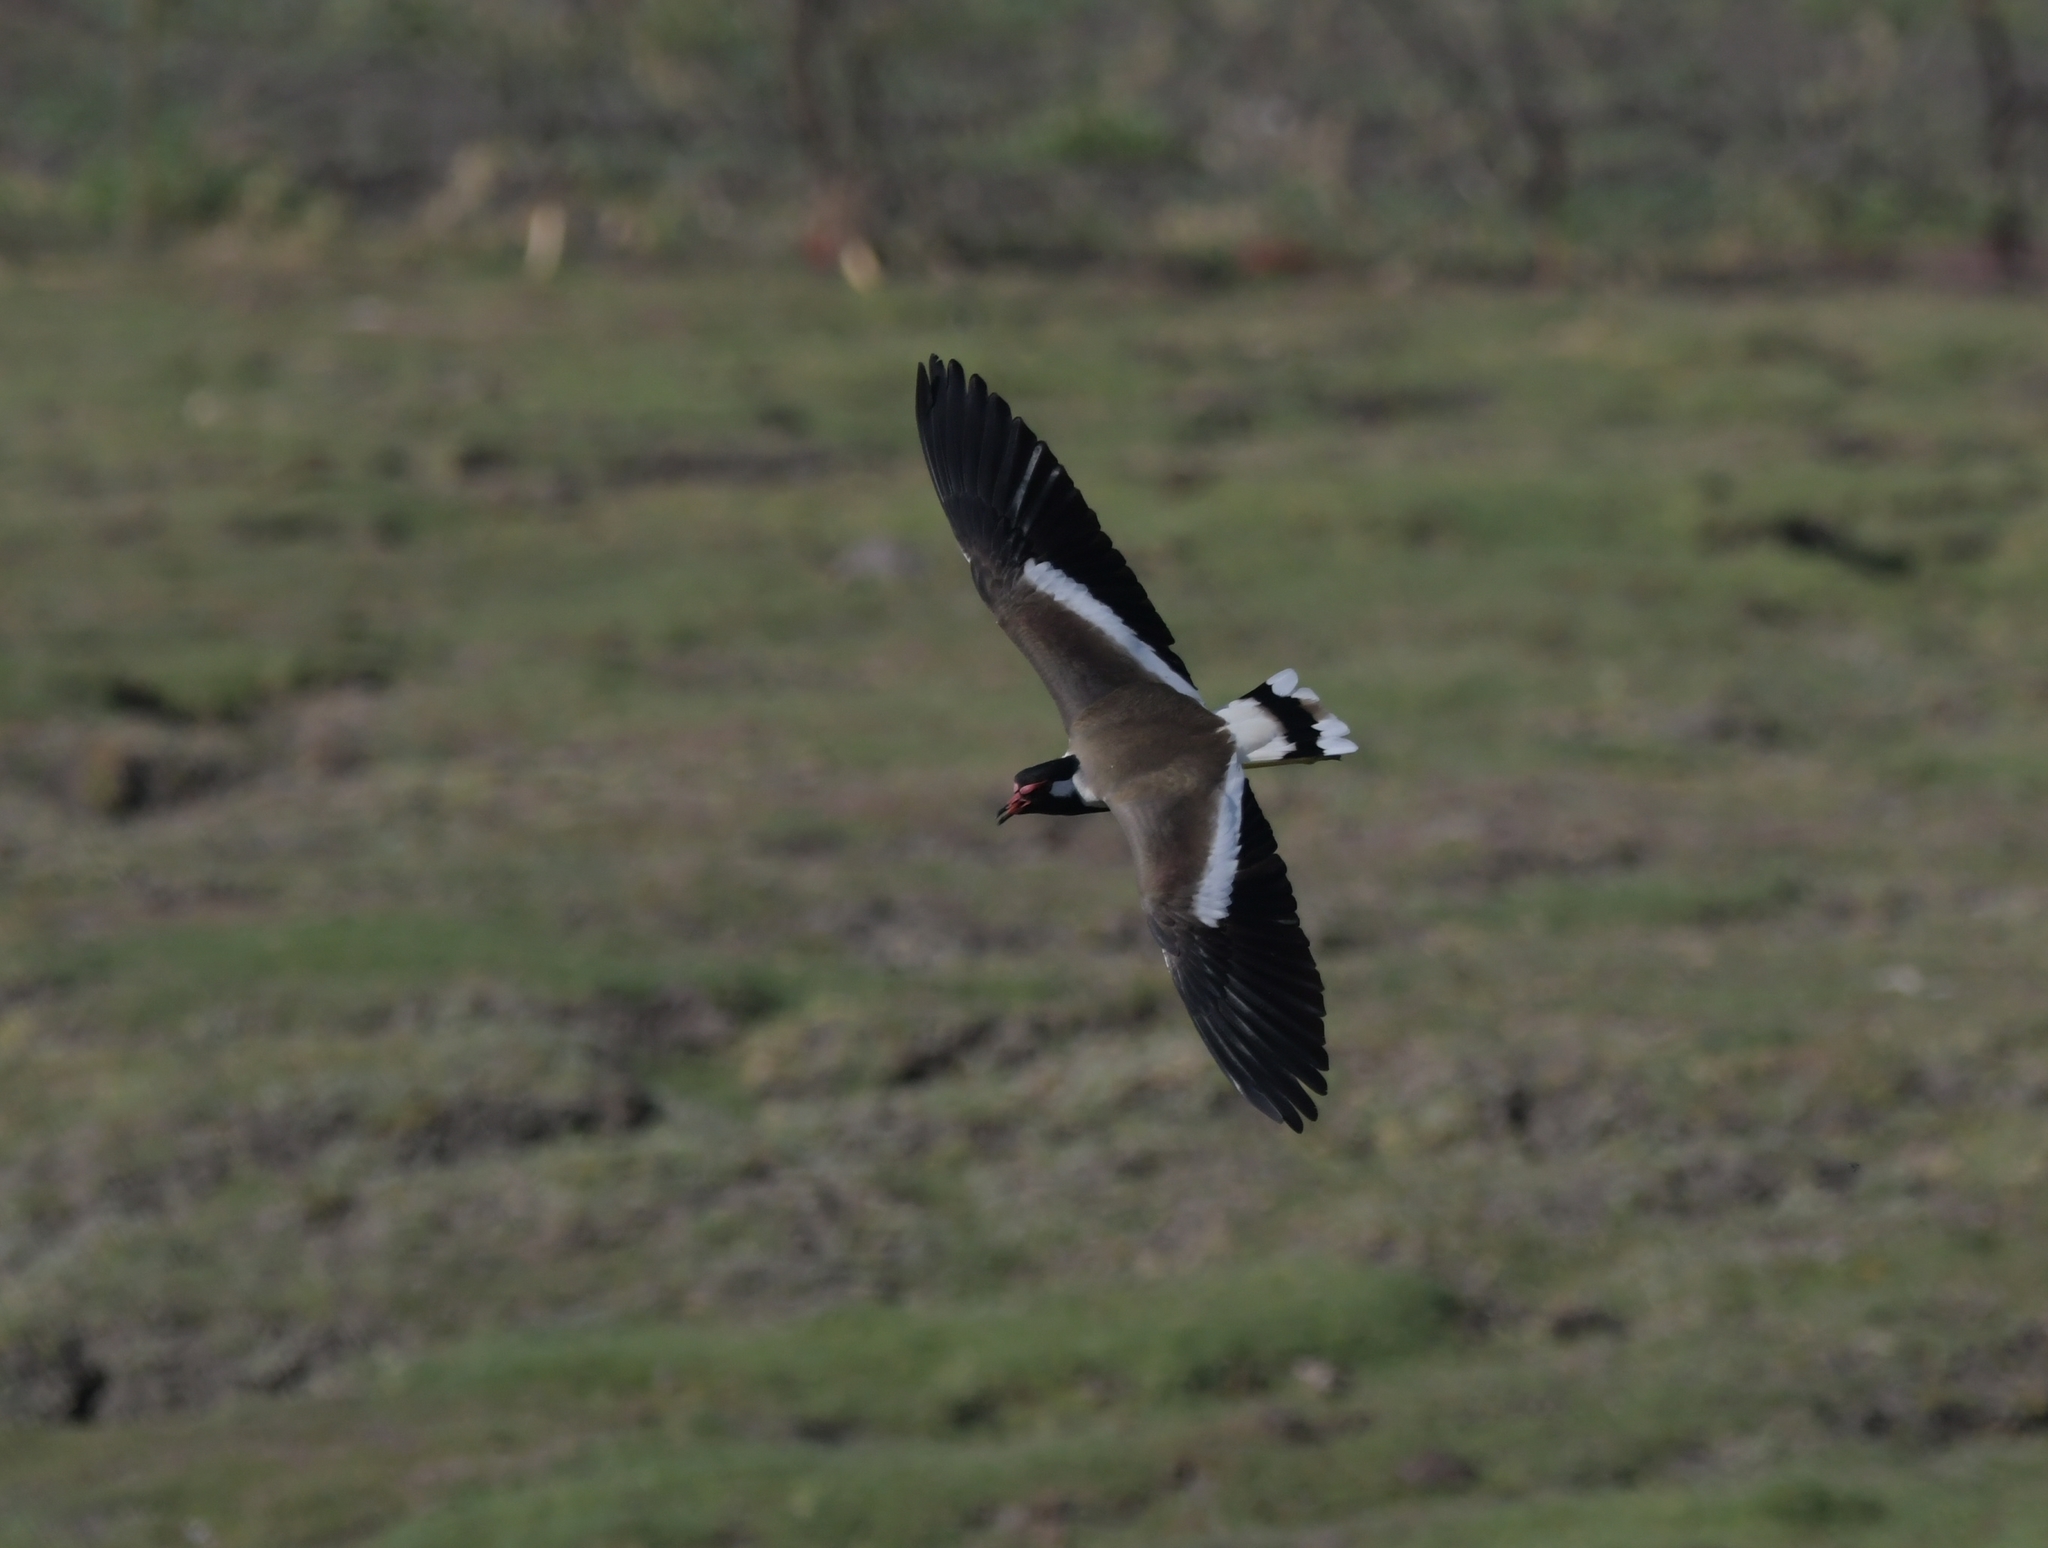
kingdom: Animalia
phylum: Chordata
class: Aves
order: Charadriiformes
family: Charadriidae
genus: Vanellus
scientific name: Vanellus indicus
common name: Red-wattled lapwing
